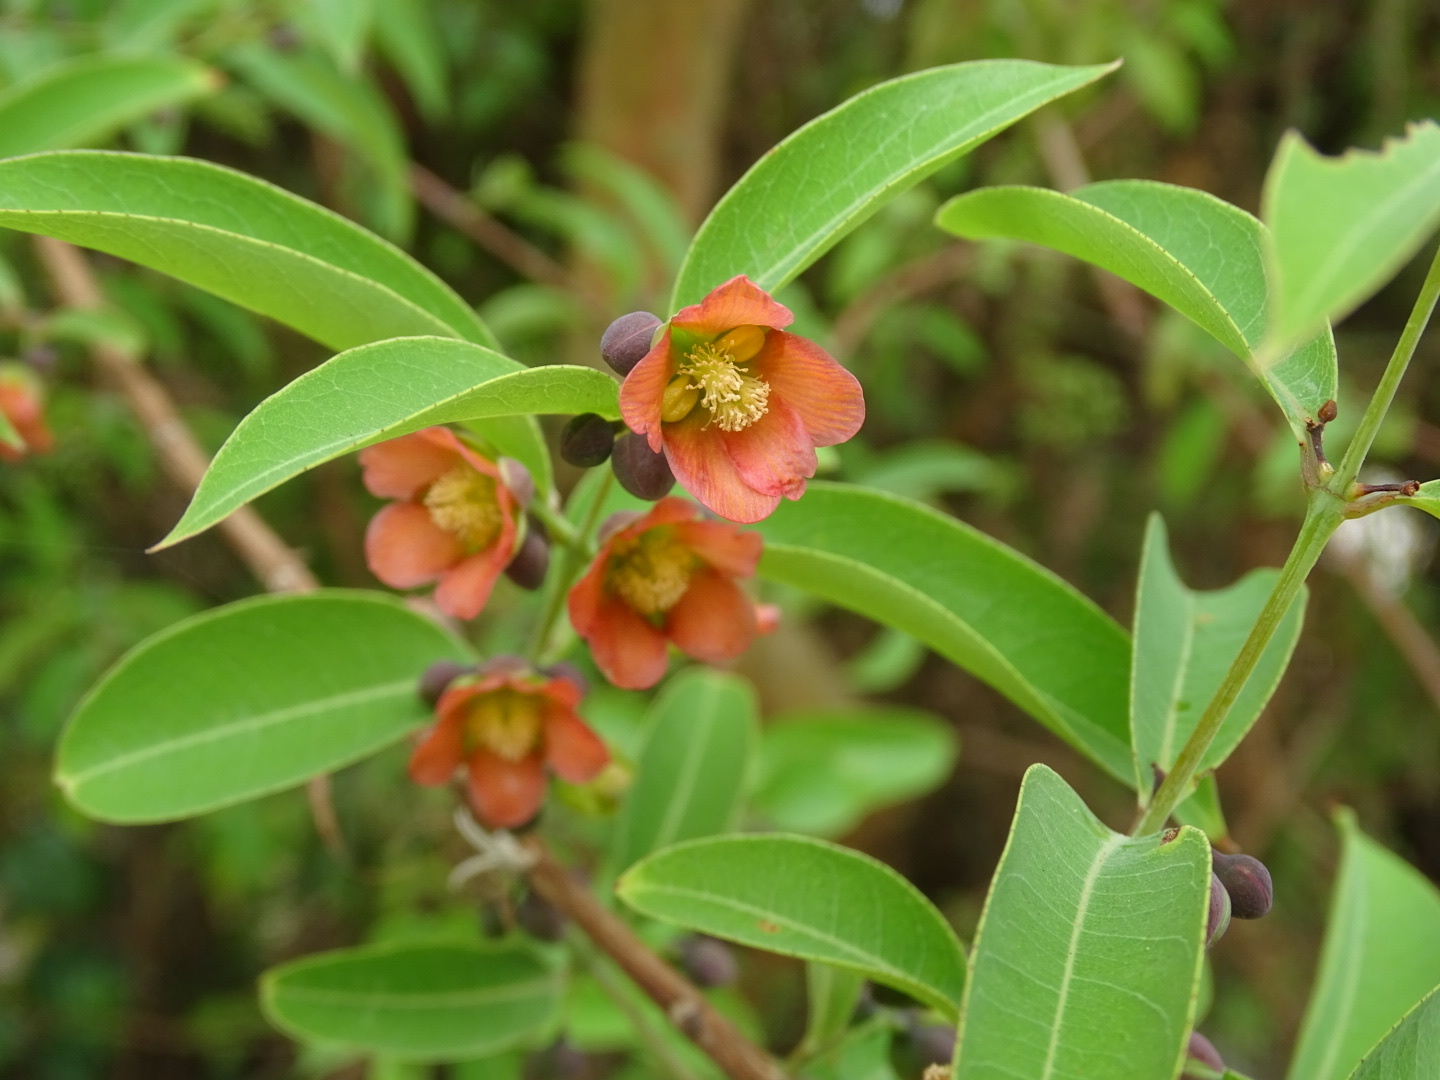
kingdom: Plantae
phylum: Tracheophyta
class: Magnoliopsida
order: Malpighiales
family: Hypericaceae
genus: Cratoxylum
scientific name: Cratoxylum cochinchinense
